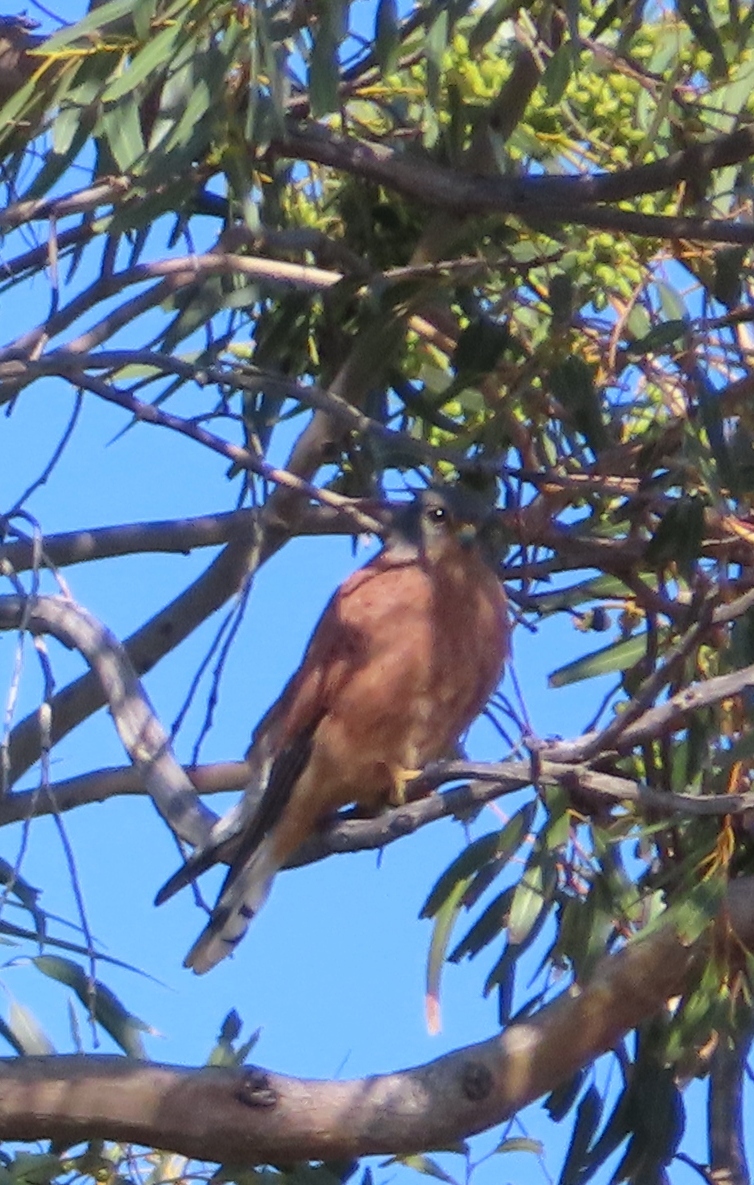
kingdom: Animalia
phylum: Chordata
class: Aves
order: Falconiformes
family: Falconidae
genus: Falco
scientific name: Falco rupicolus
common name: Rock kestrel
